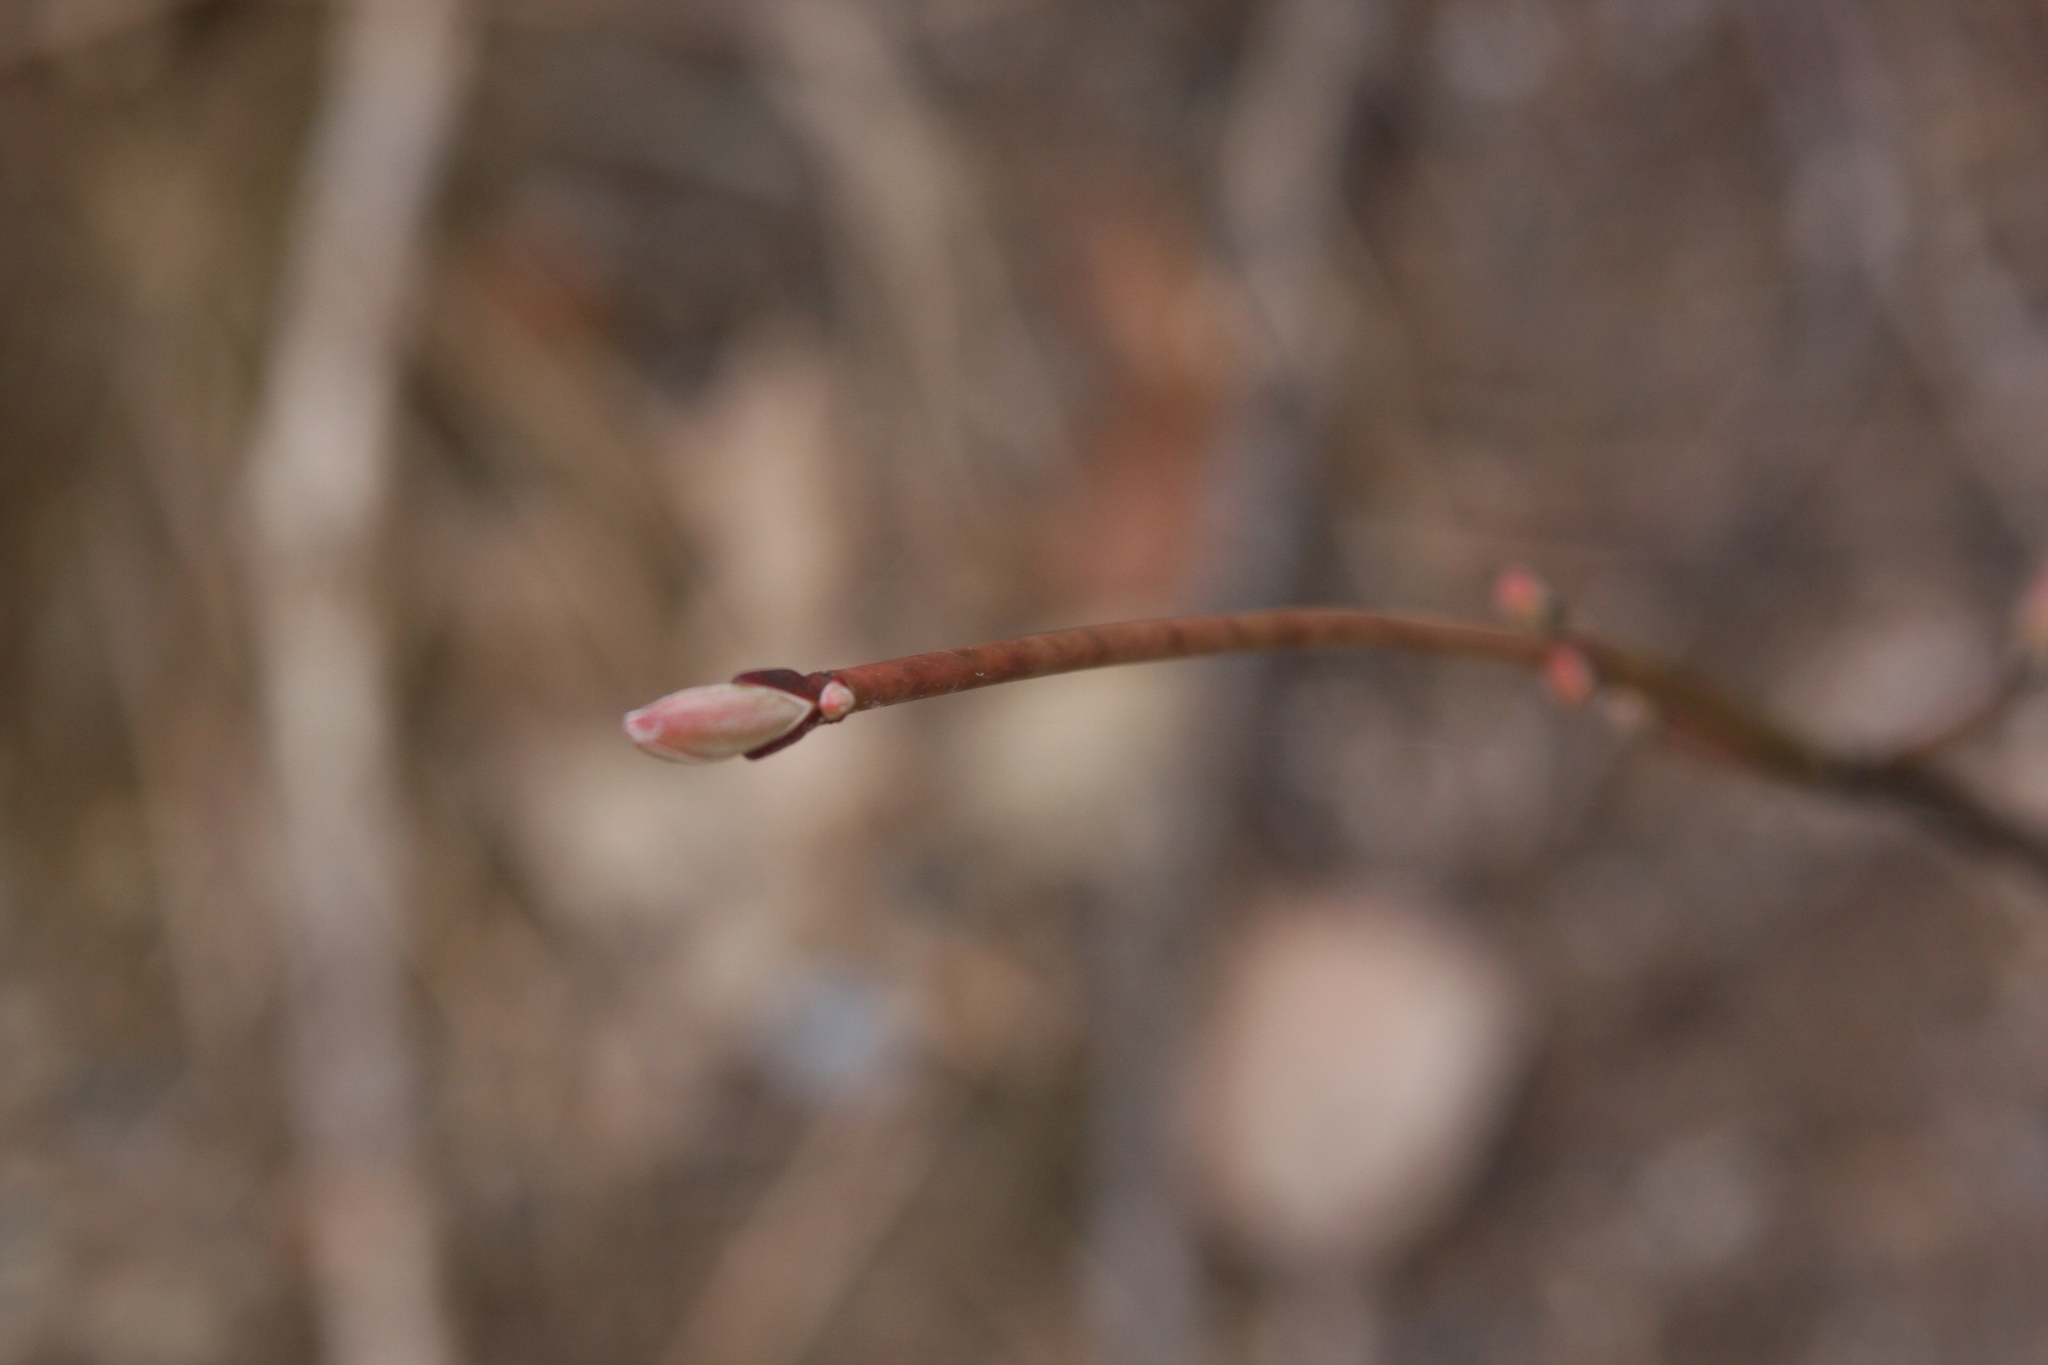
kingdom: Plantae
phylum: Tracheophyta
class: Magnoliopsida
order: Sapindales
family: Sapindaceae
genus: Acer
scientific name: Acer pensylvanicum
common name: Moosewood
